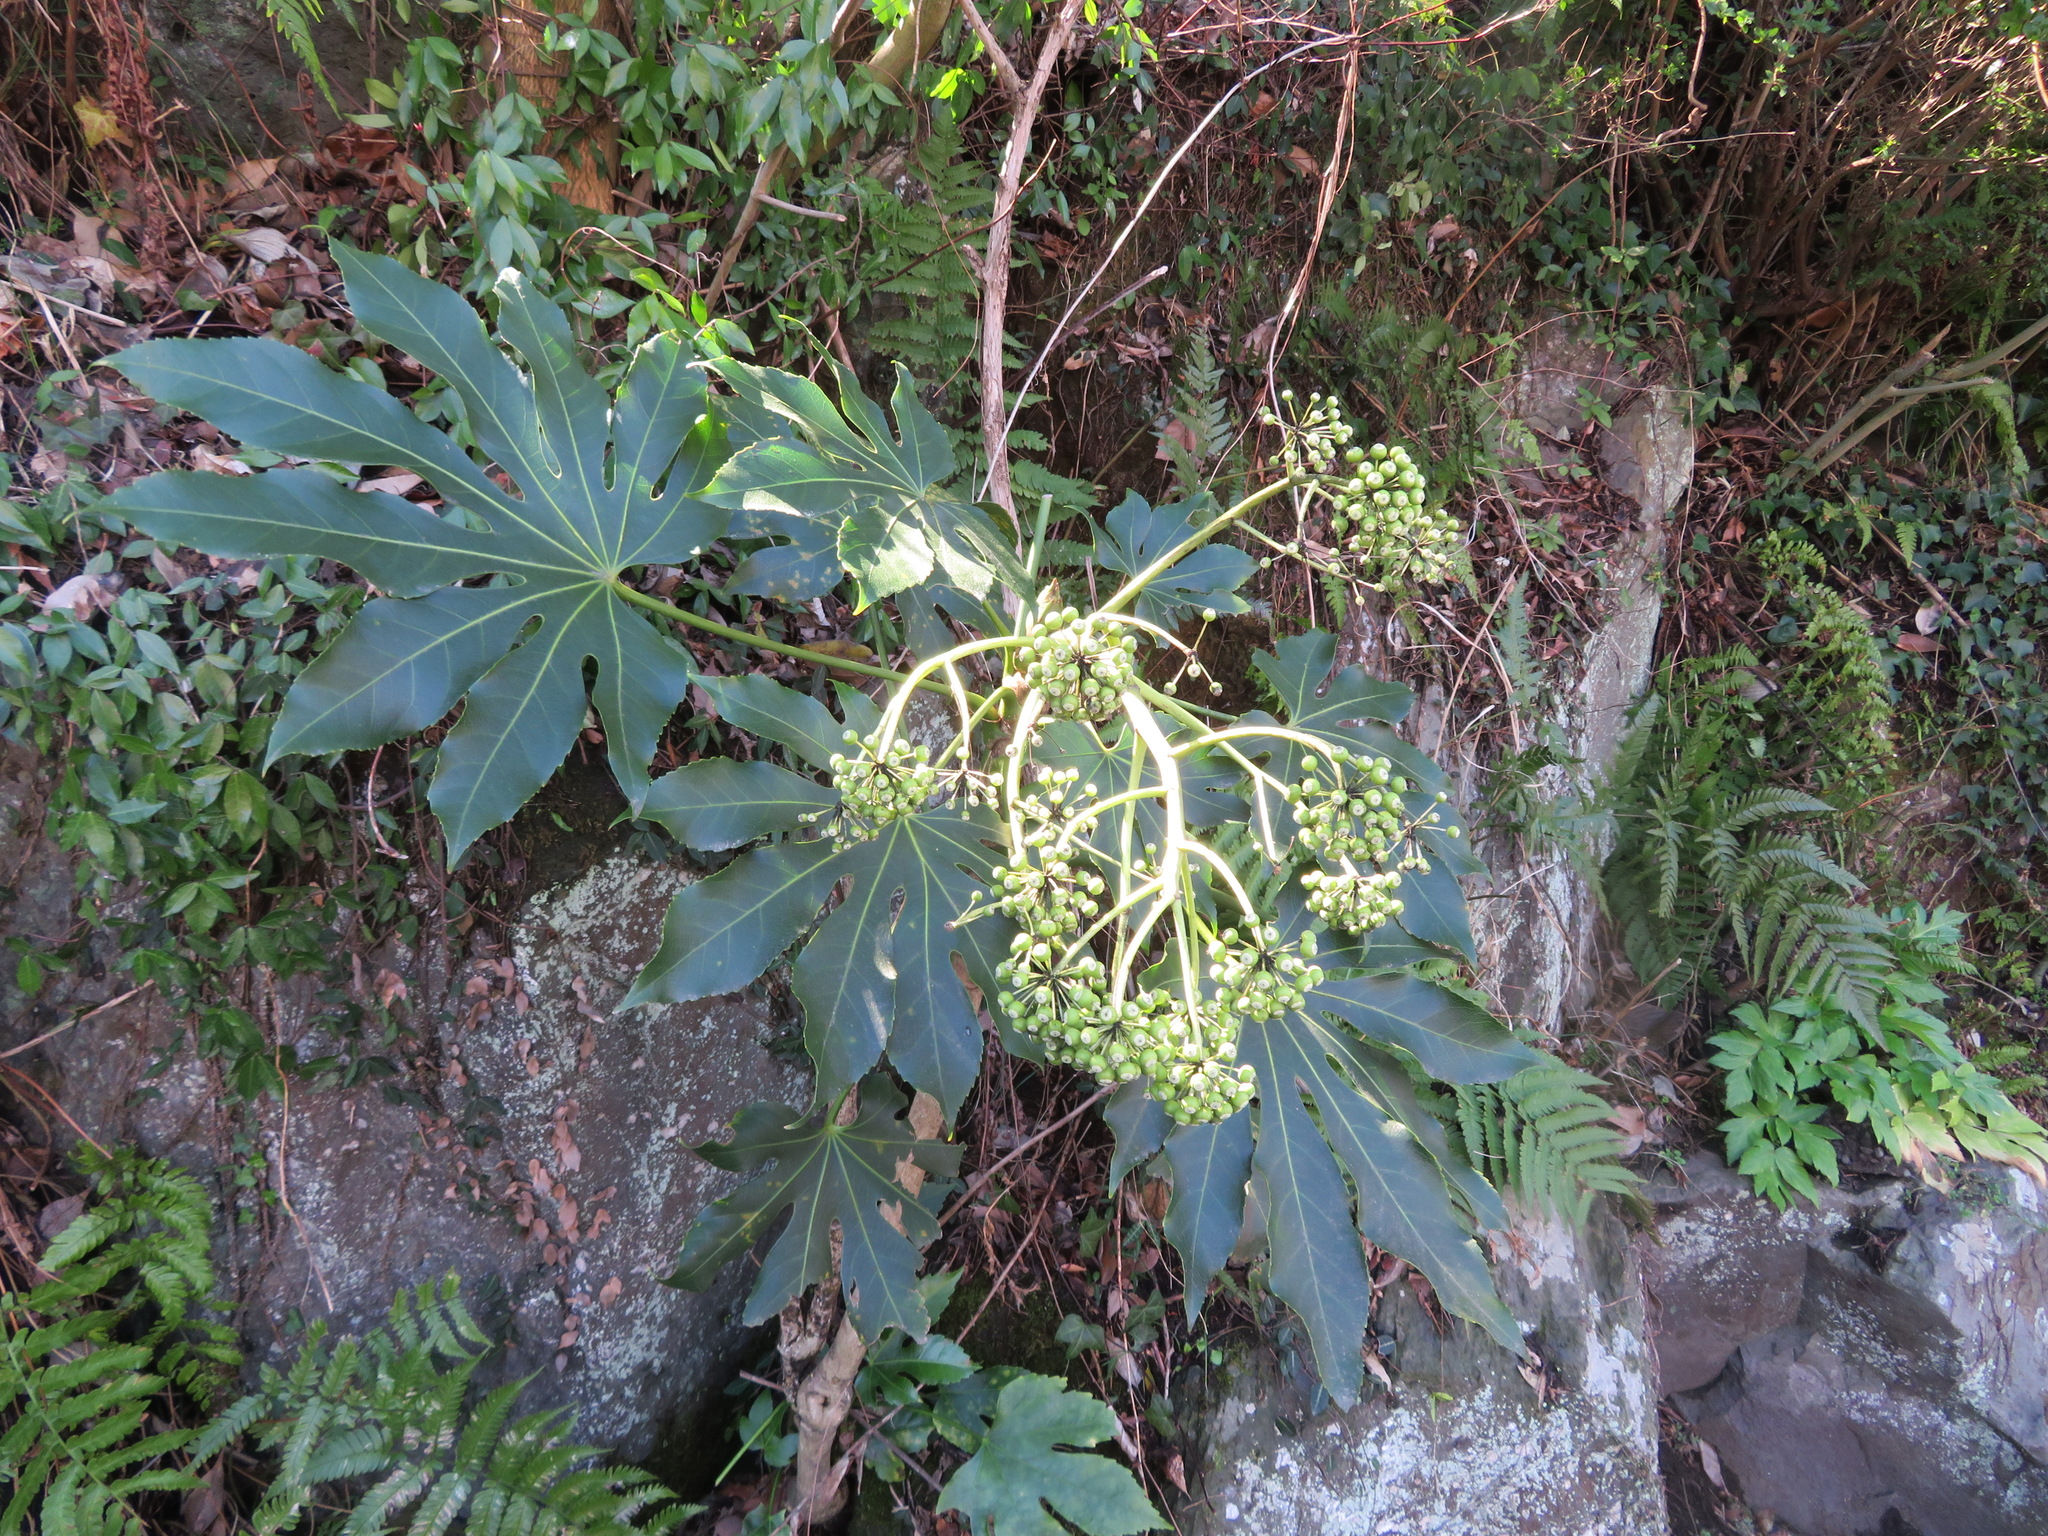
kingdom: Plantae
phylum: Tracheophyta
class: Magnoliopsida
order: Apiales
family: Araliaceae
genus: Fatsia
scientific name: Fatsia japonica
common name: Fatsia
